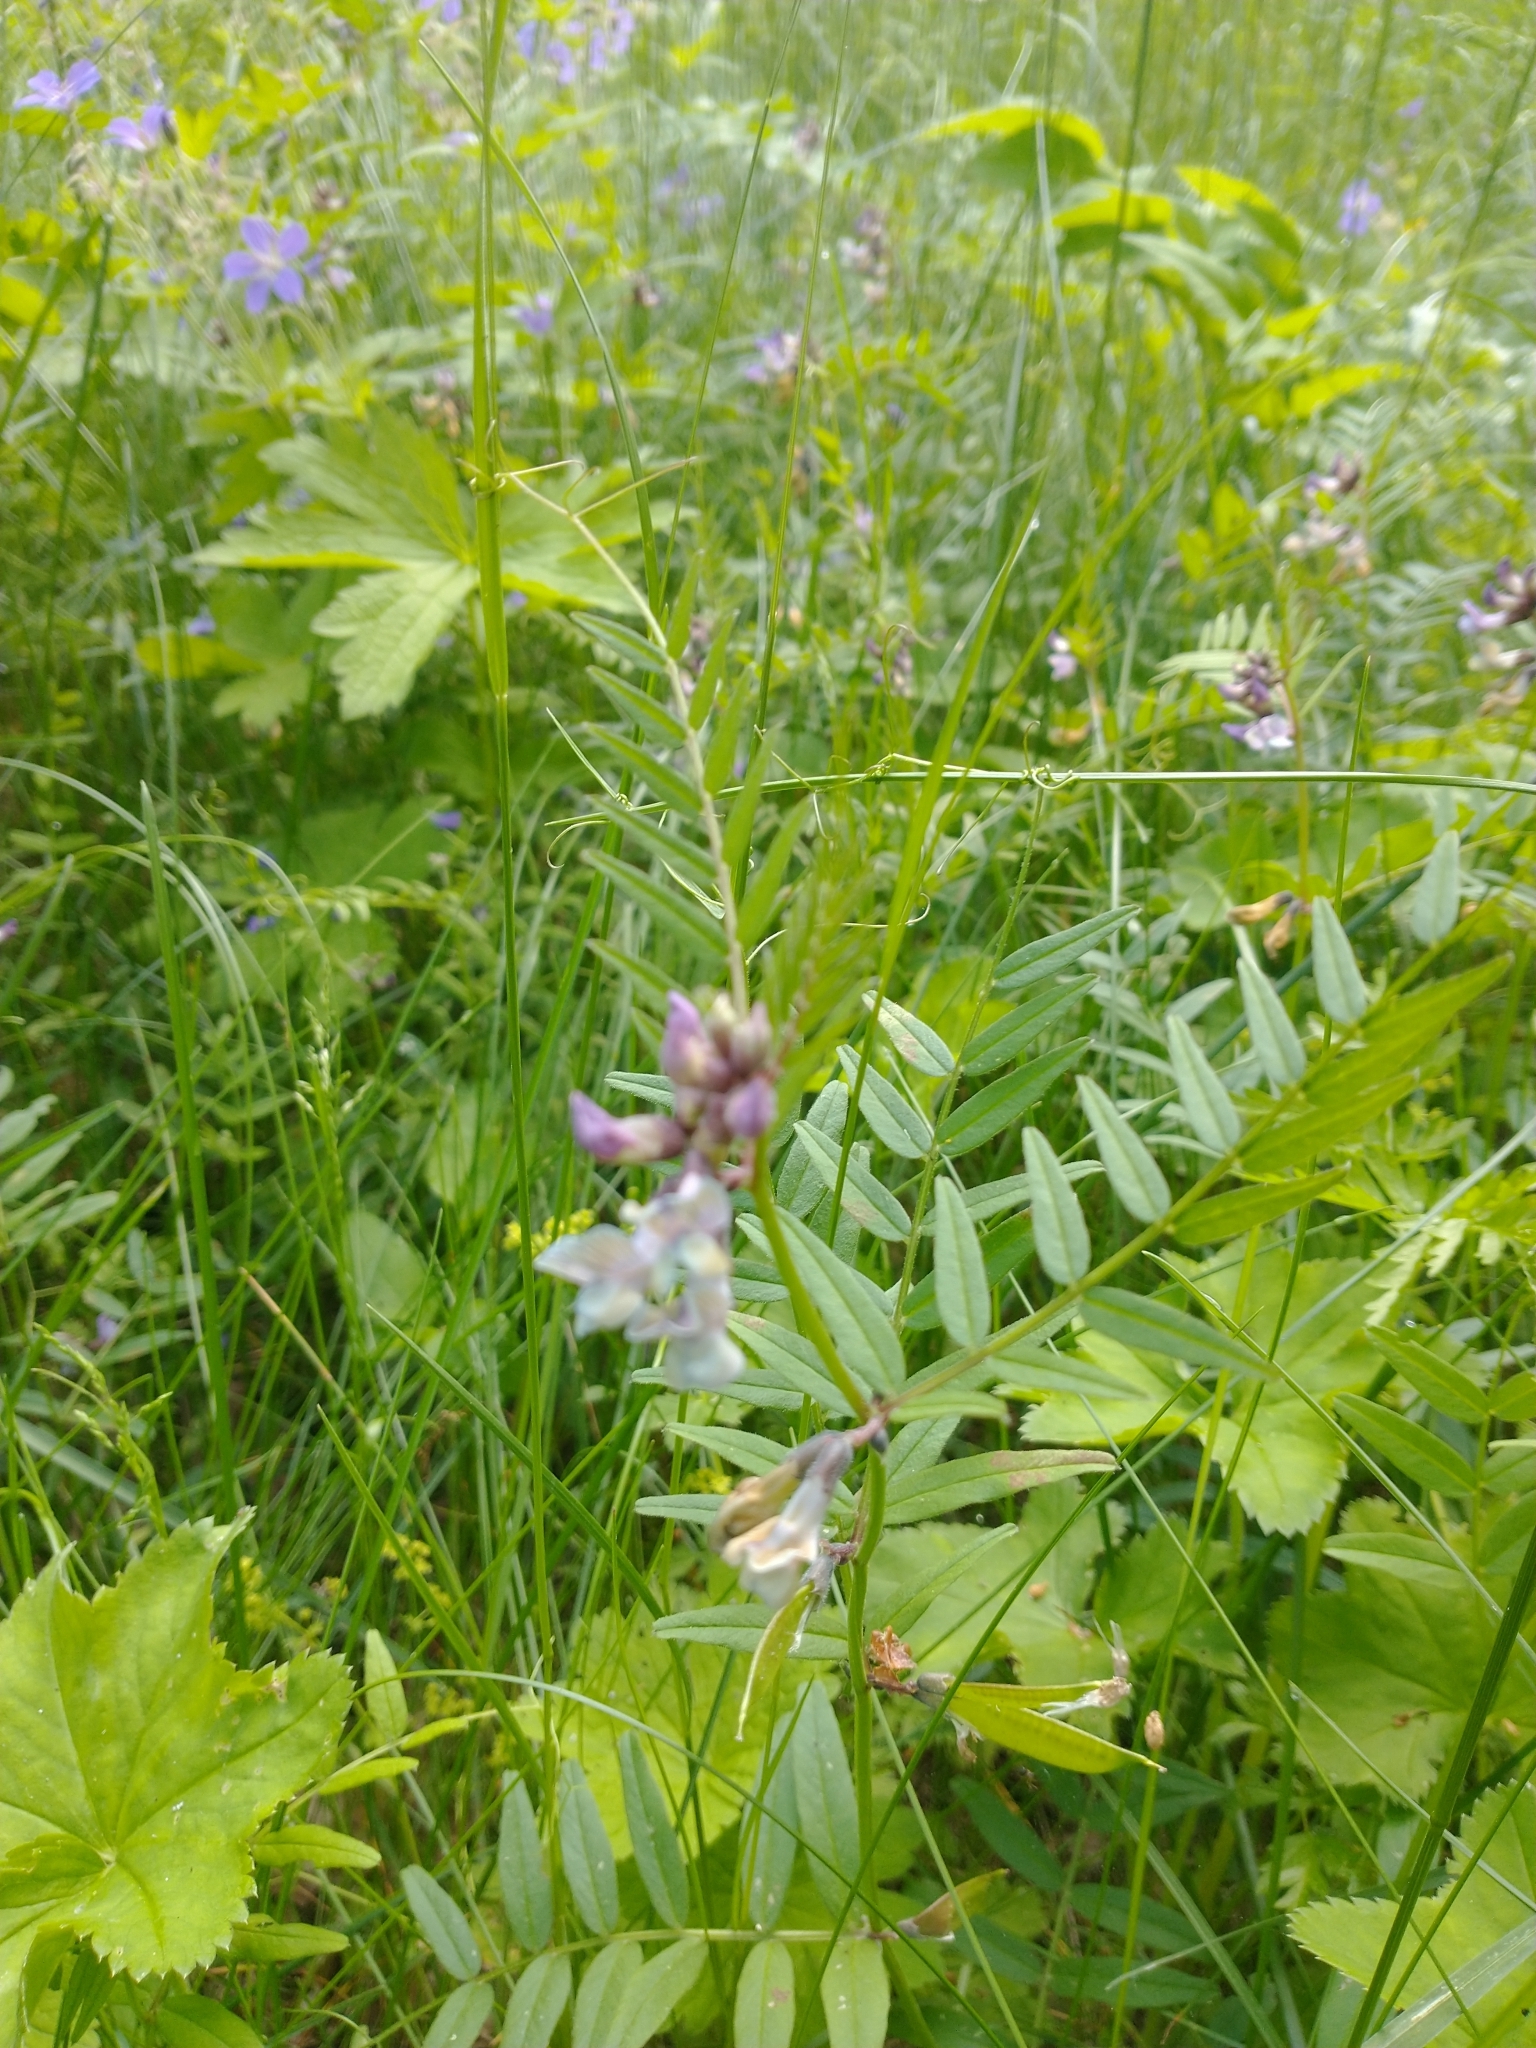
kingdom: Plantae
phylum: Tracheophyta
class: Magnoliopsida
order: Fabales
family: Fabaceae
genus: Vicia
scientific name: Vicia sepium
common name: Bush vetch
